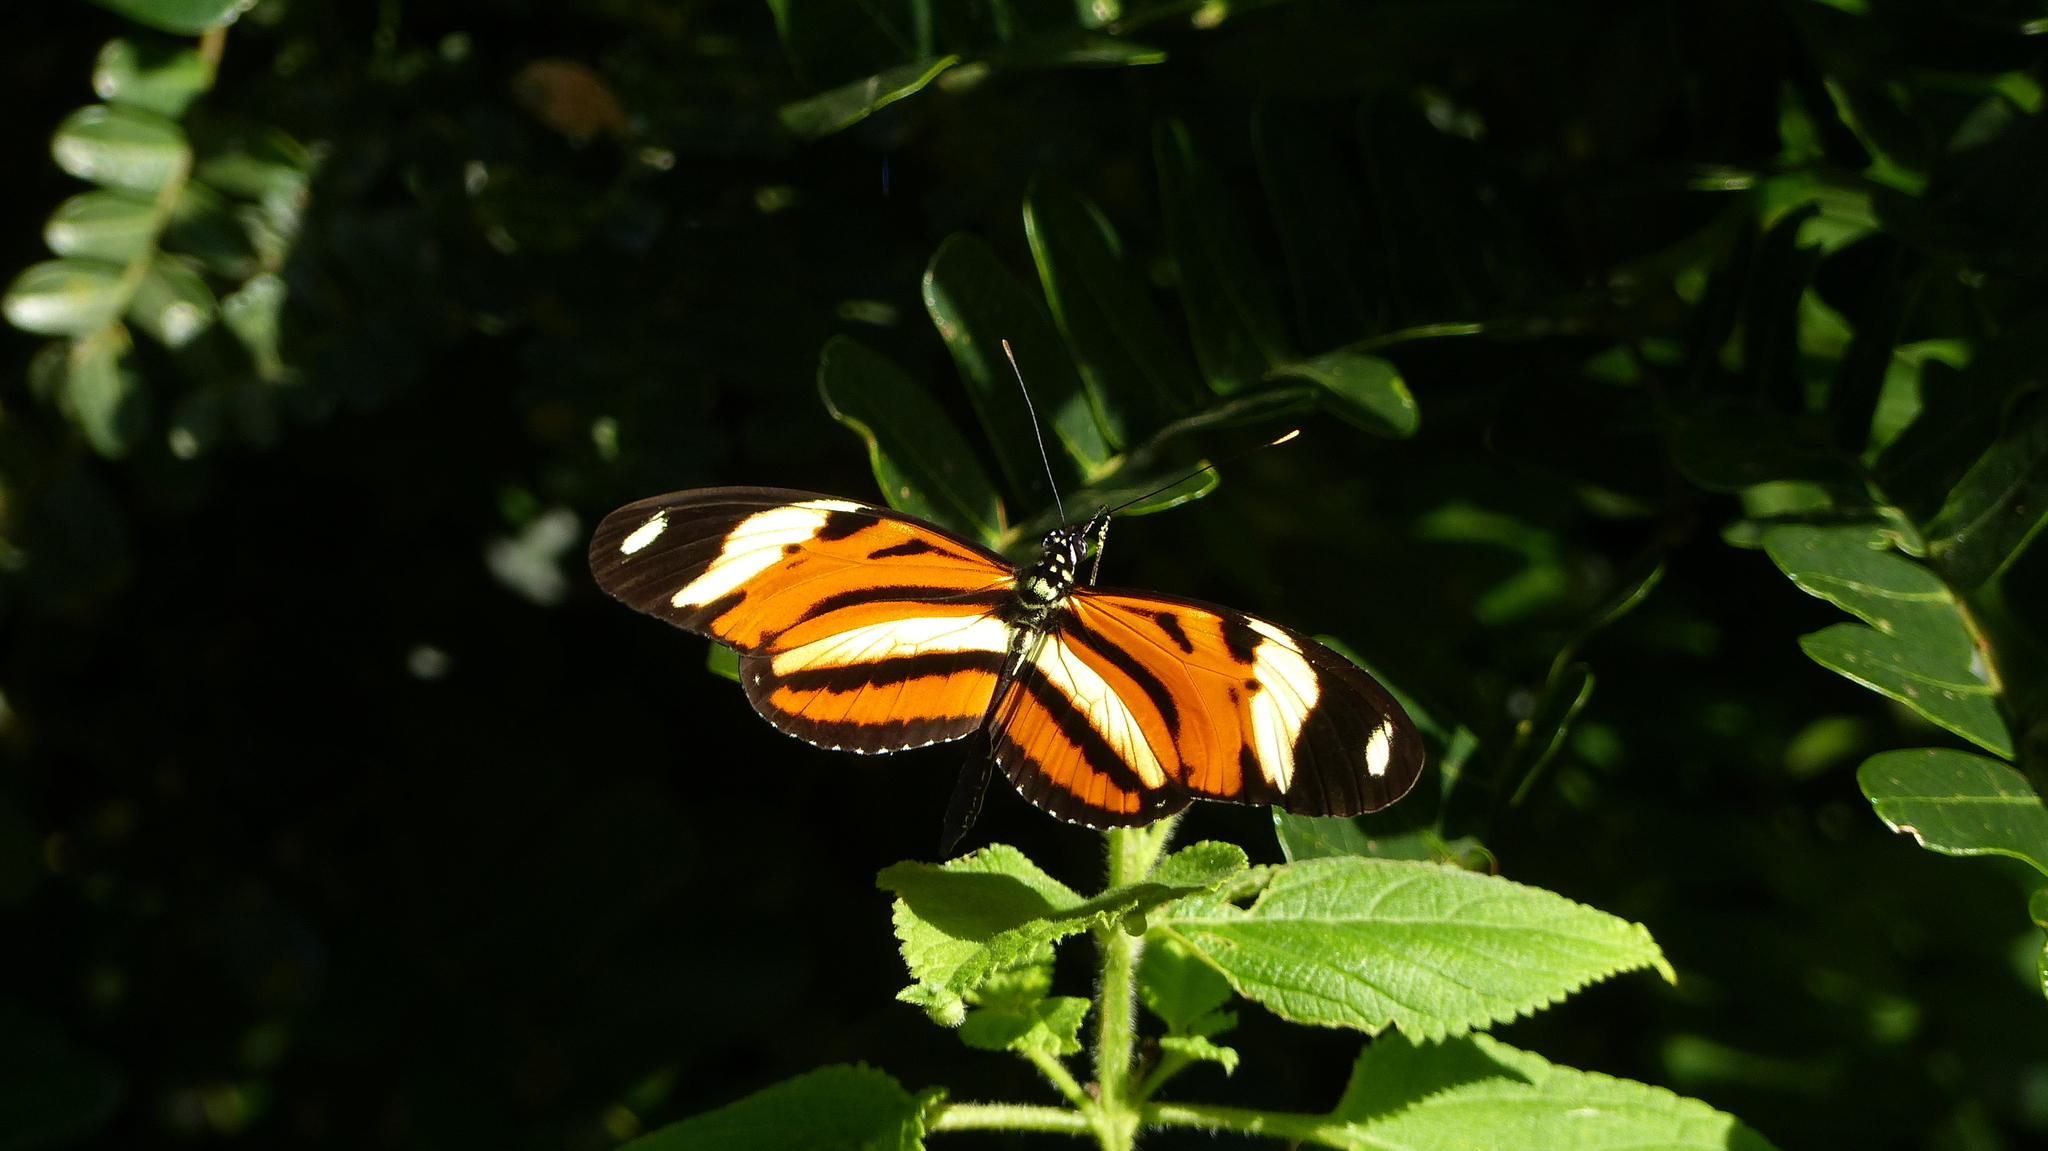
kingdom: Animalia
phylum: Arthropoda
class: Insecta
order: Lepidoptera
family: Nymphalidae
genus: Heliconius
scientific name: Heliconius ethilla
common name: Ethilia longwing
